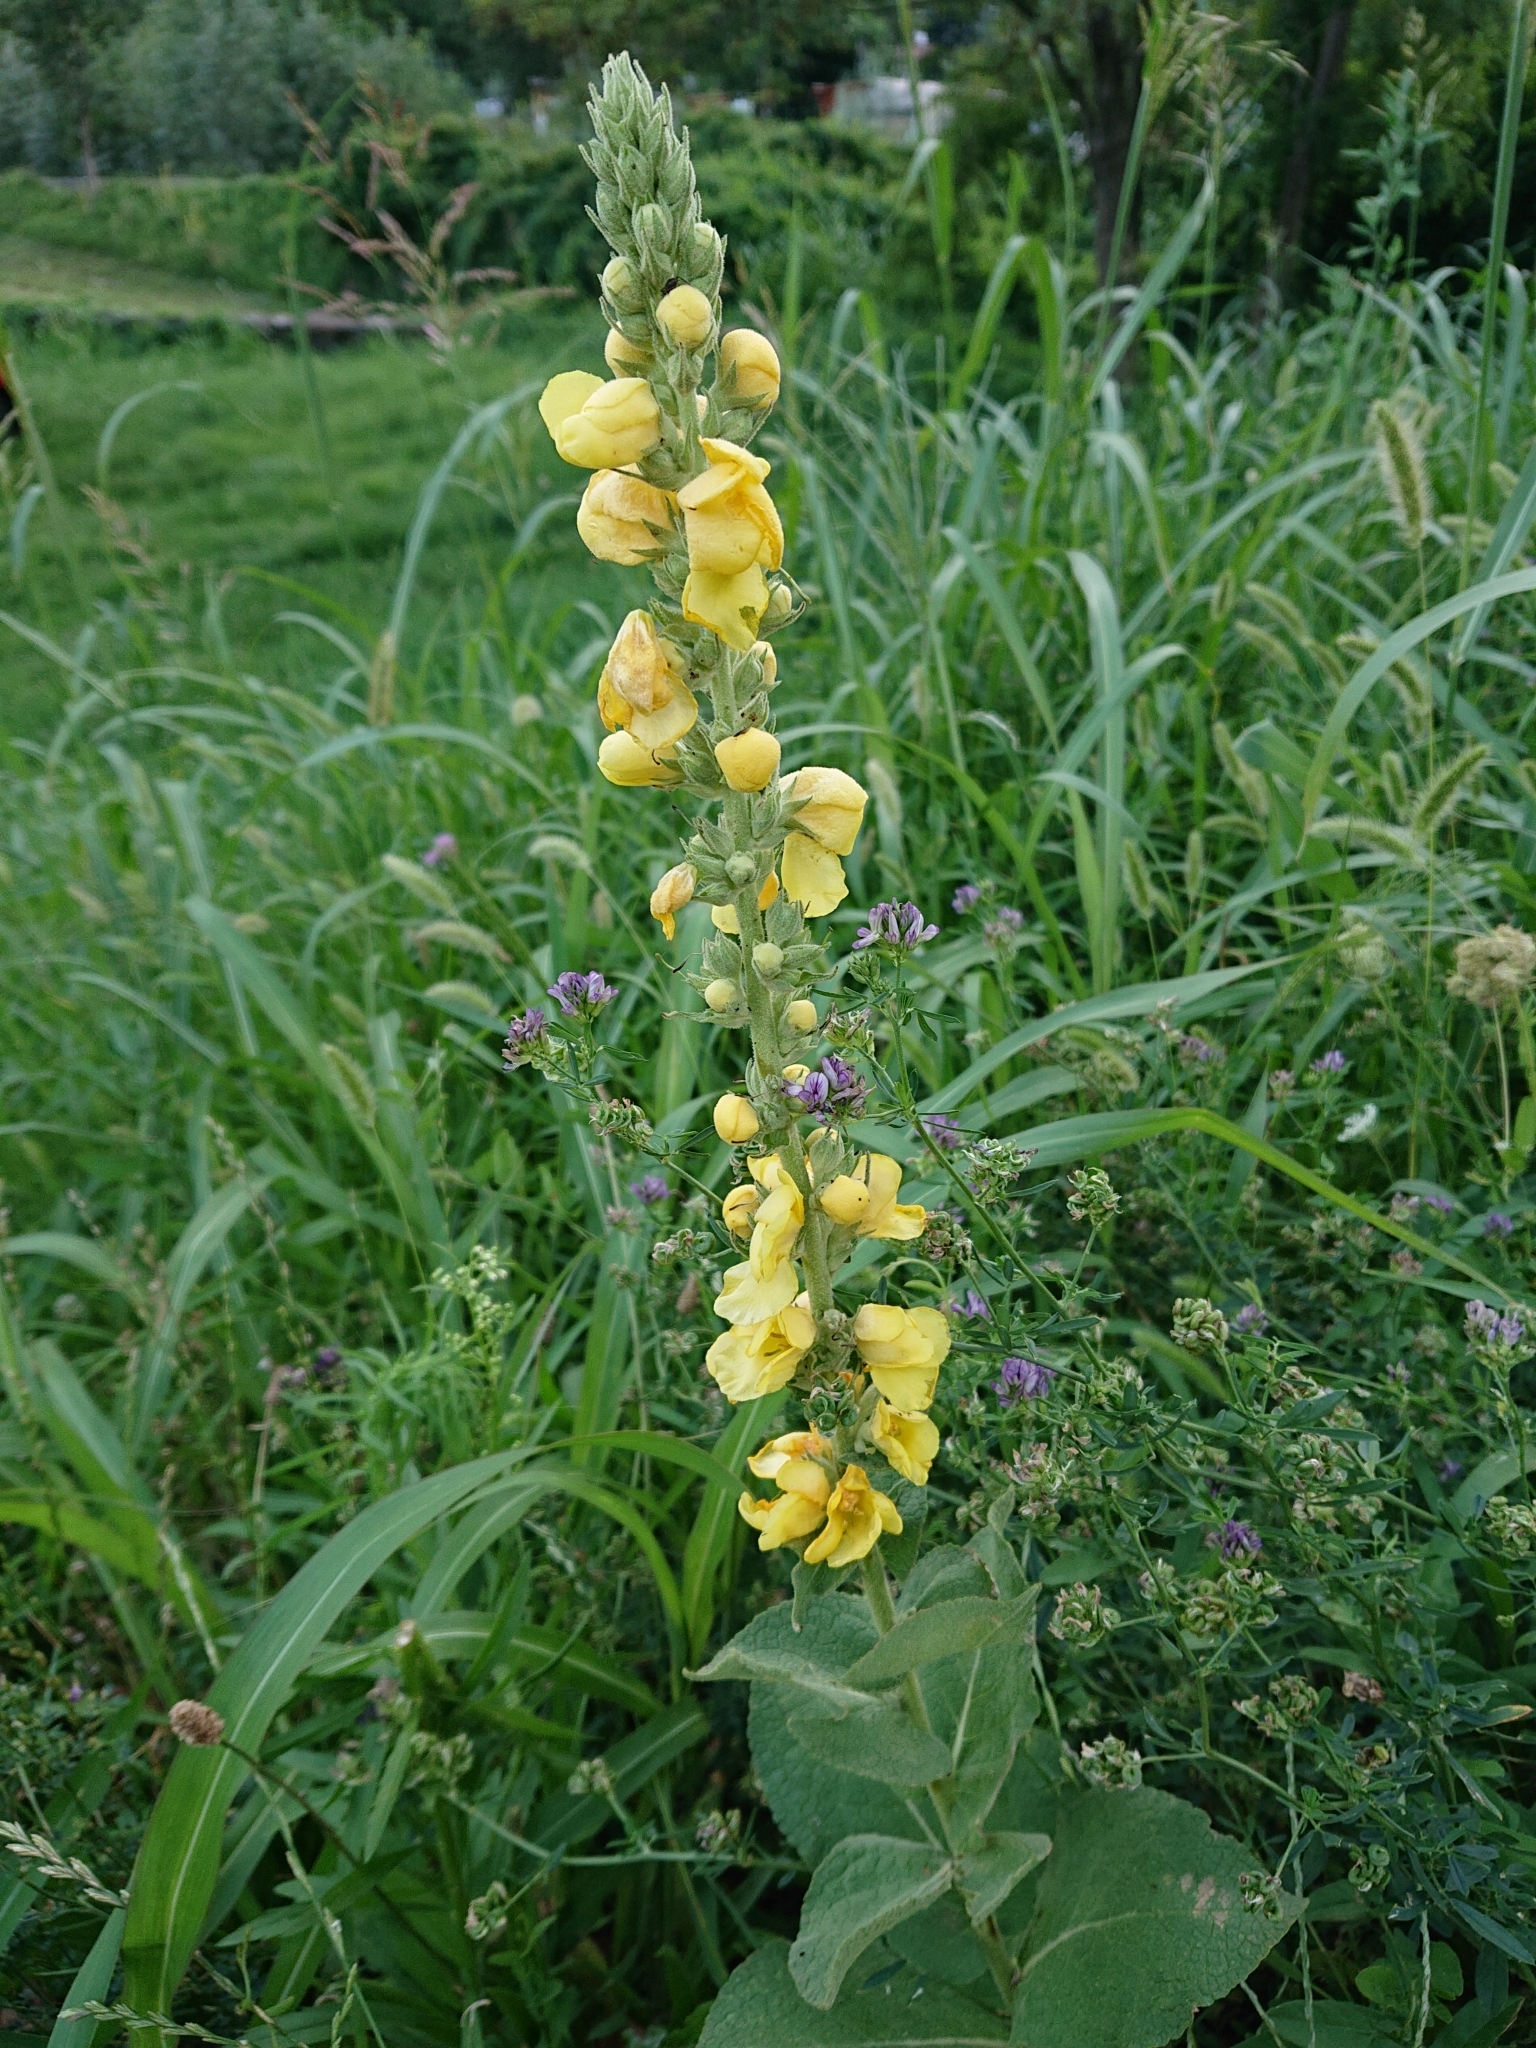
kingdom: Plantae
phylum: Tracheophyta
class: Magnoliopsida
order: Lamiales
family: Scrophulariaceae
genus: Verbascum
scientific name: Verbascum phlomoides
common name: Orange mullein
